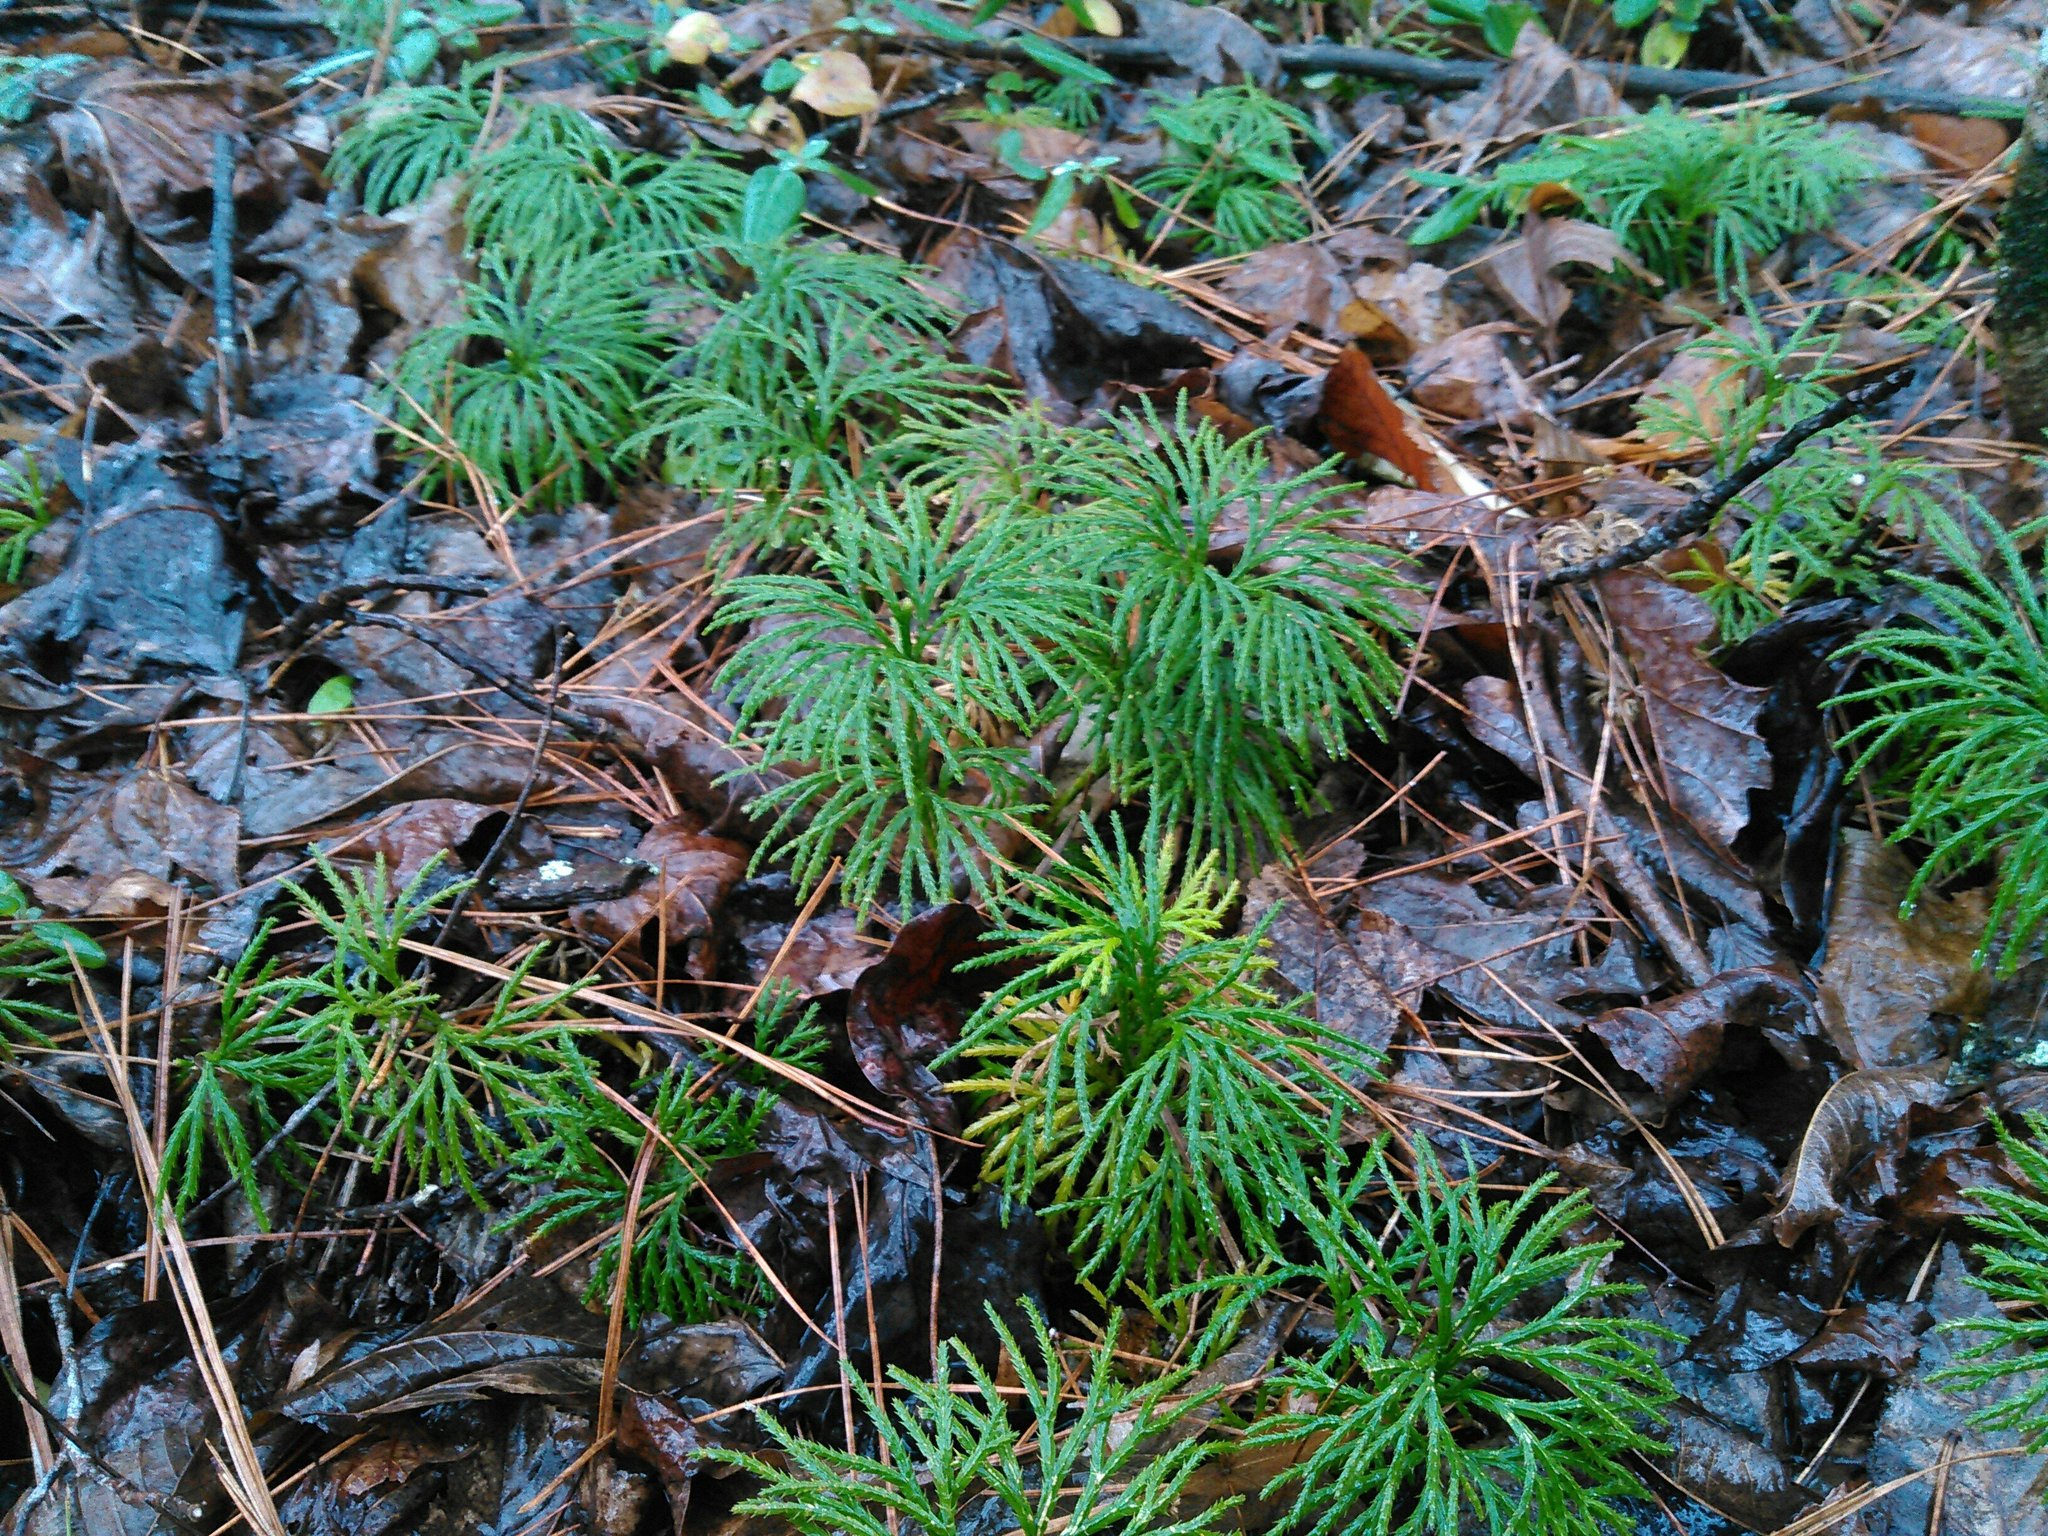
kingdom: Plantae
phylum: Tracheophyta
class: Lycopodiopsida
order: Lycopodiales
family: Lycopodiaceae
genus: Diphasiastrum
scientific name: Diphasiastrum digitatum
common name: Southern running-pine
